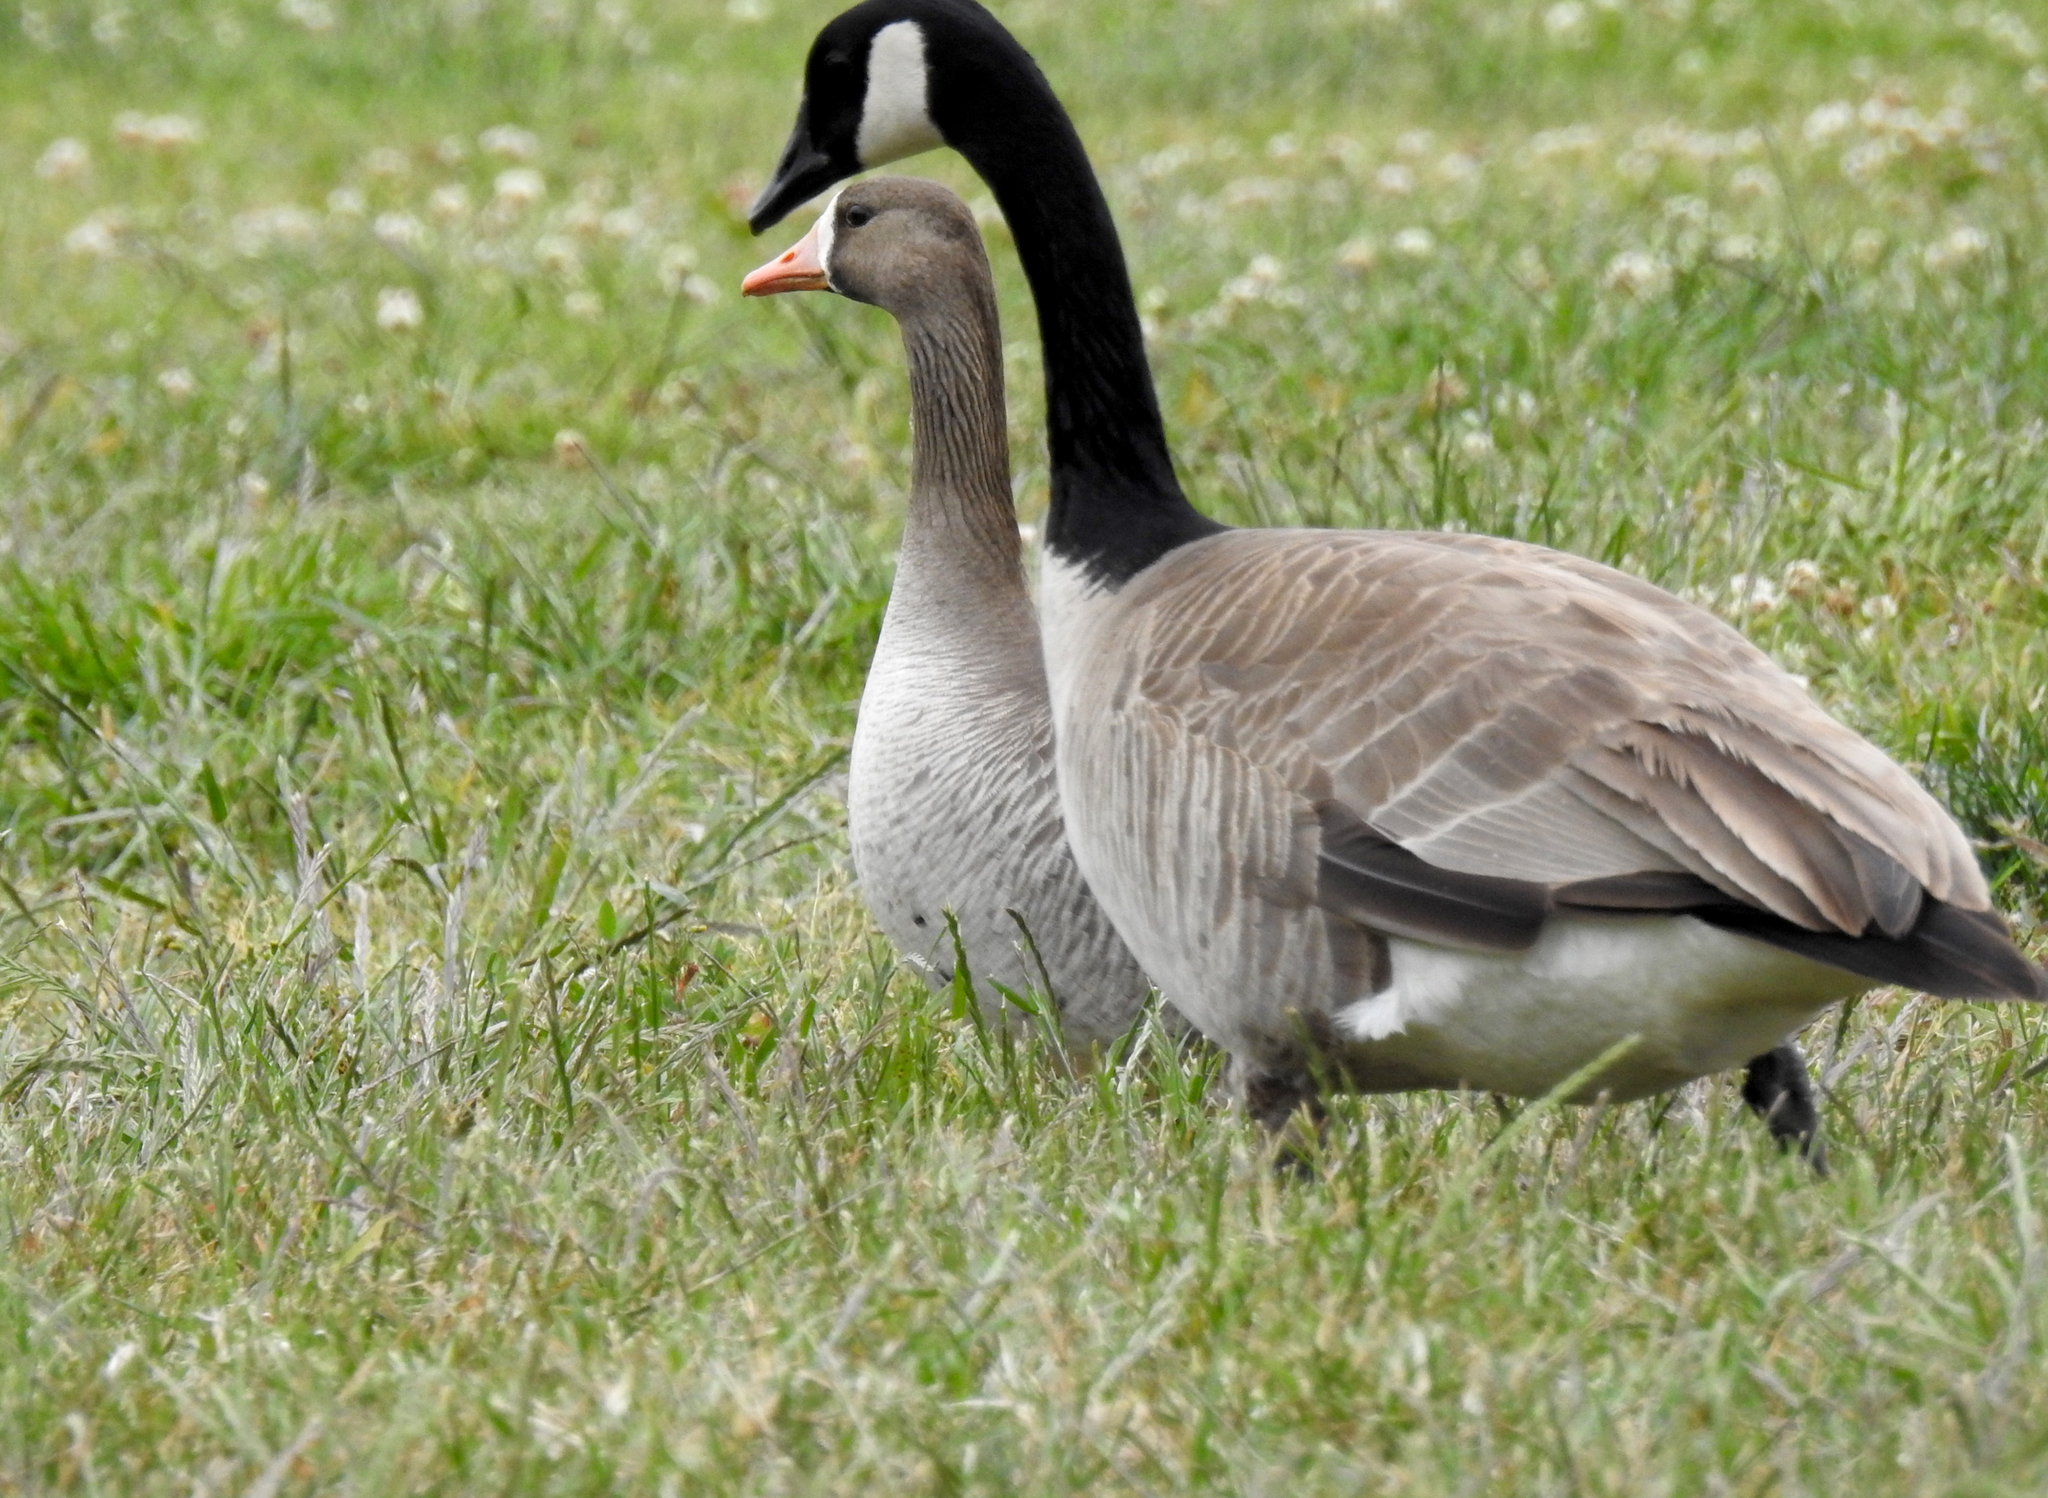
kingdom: Animalia
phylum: Chordata
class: Aves
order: Anseriformes
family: Anatidae
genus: Anser
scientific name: Anser albifrons
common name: Greater white-fronted goose
